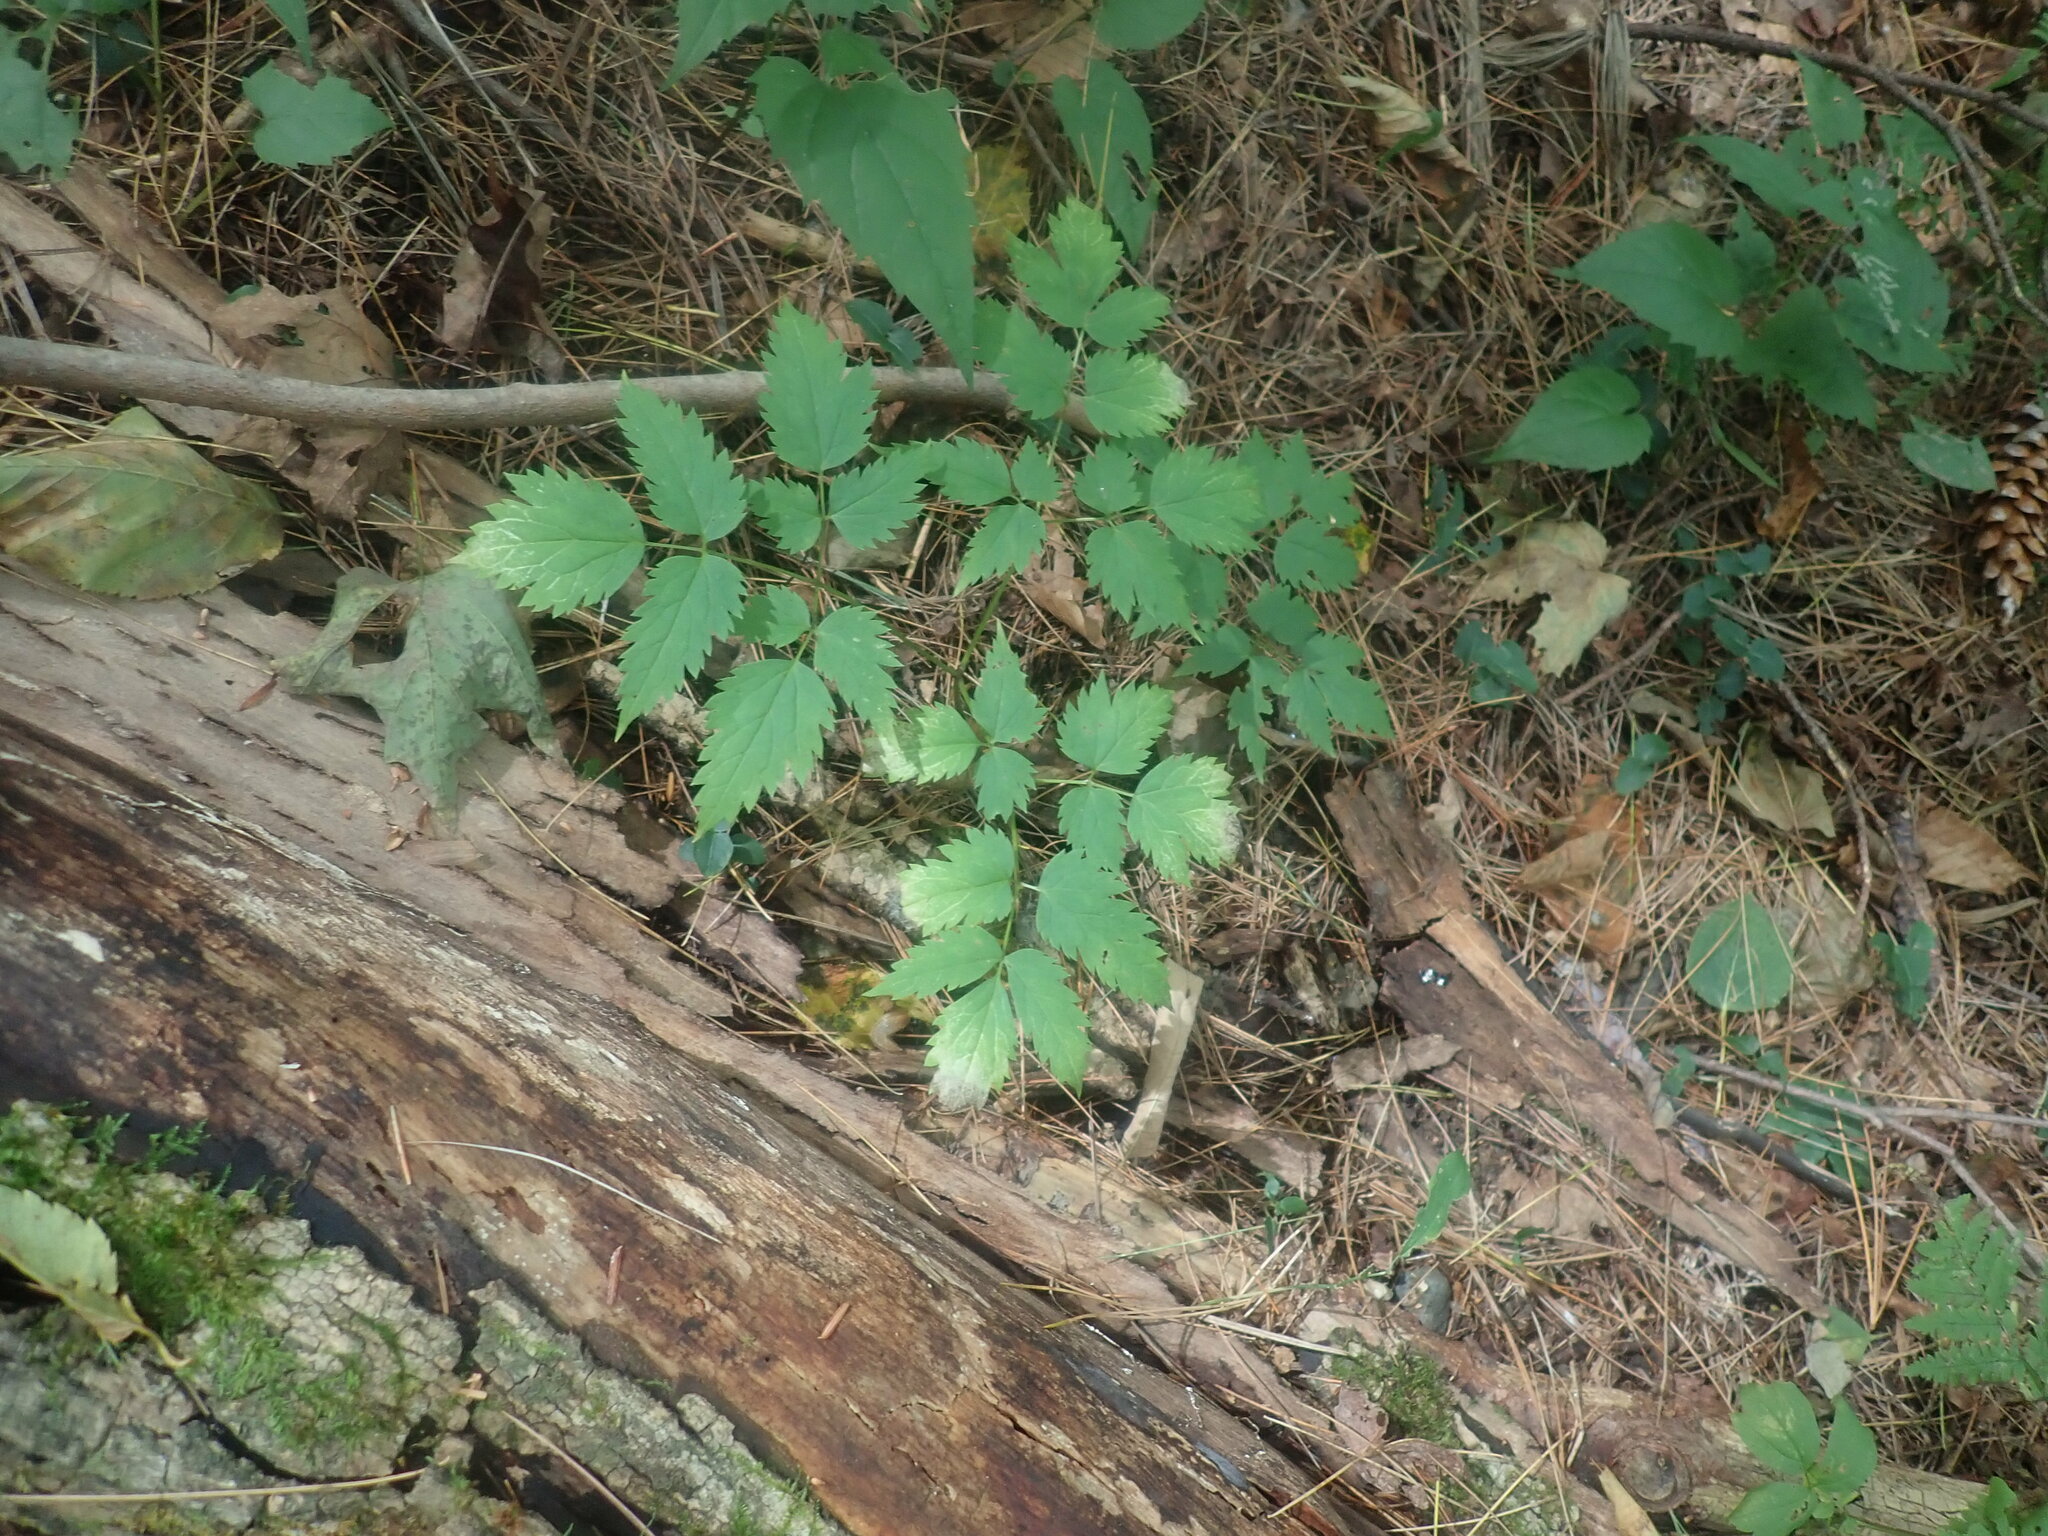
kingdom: Plantae
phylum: Tracheophyta
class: Magnoliopsida
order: Ranunculales
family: Ranunculaceae
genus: Actaea
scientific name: Actaea
